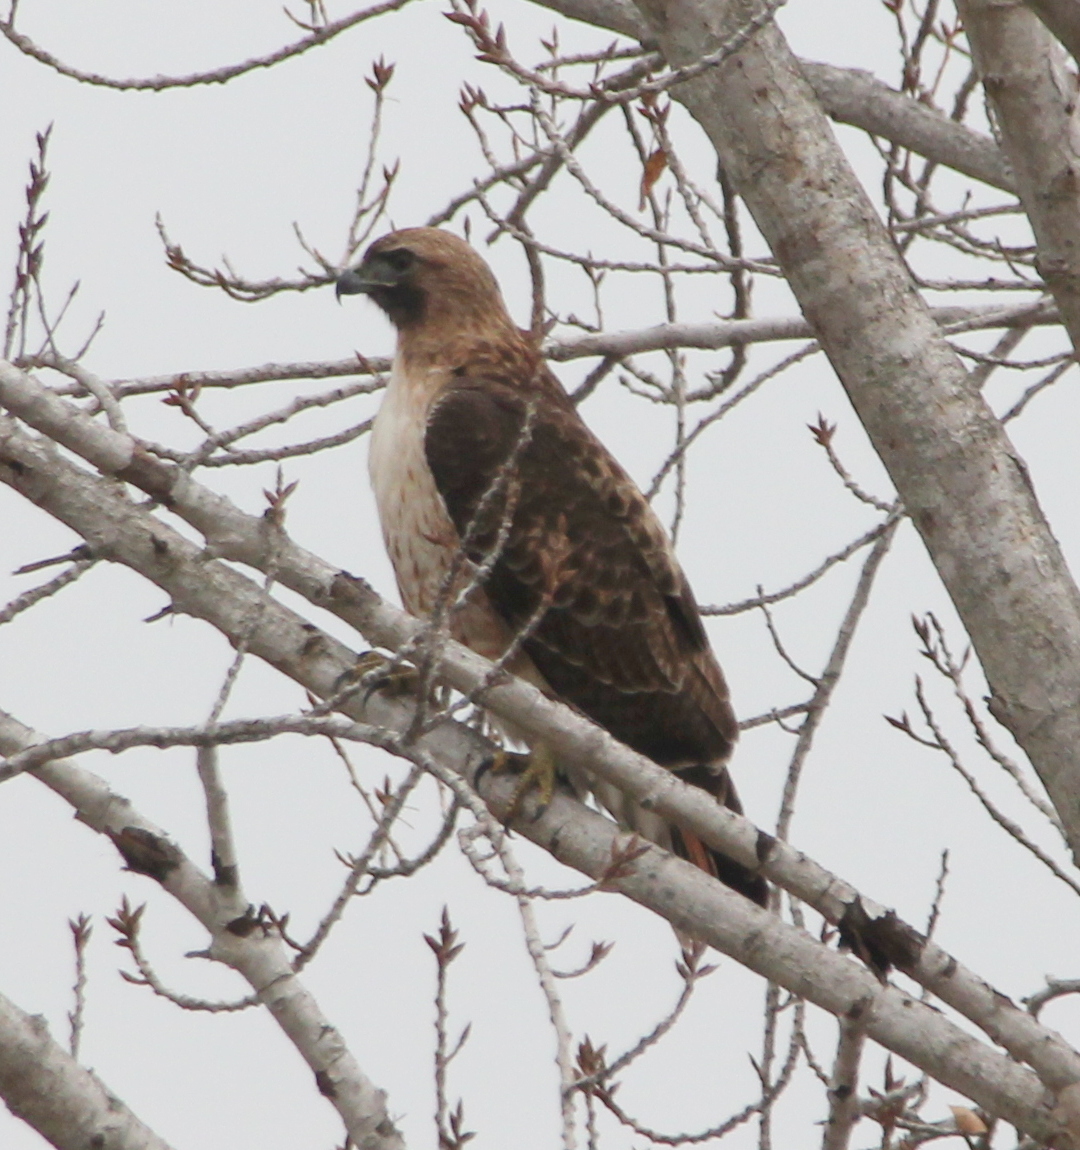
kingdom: Animalia
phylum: Chordata
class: Aves
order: Accipitriformes
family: Accipitridae
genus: Buteo
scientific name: Buteo jamaicensis
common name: Red-tailed hawk
